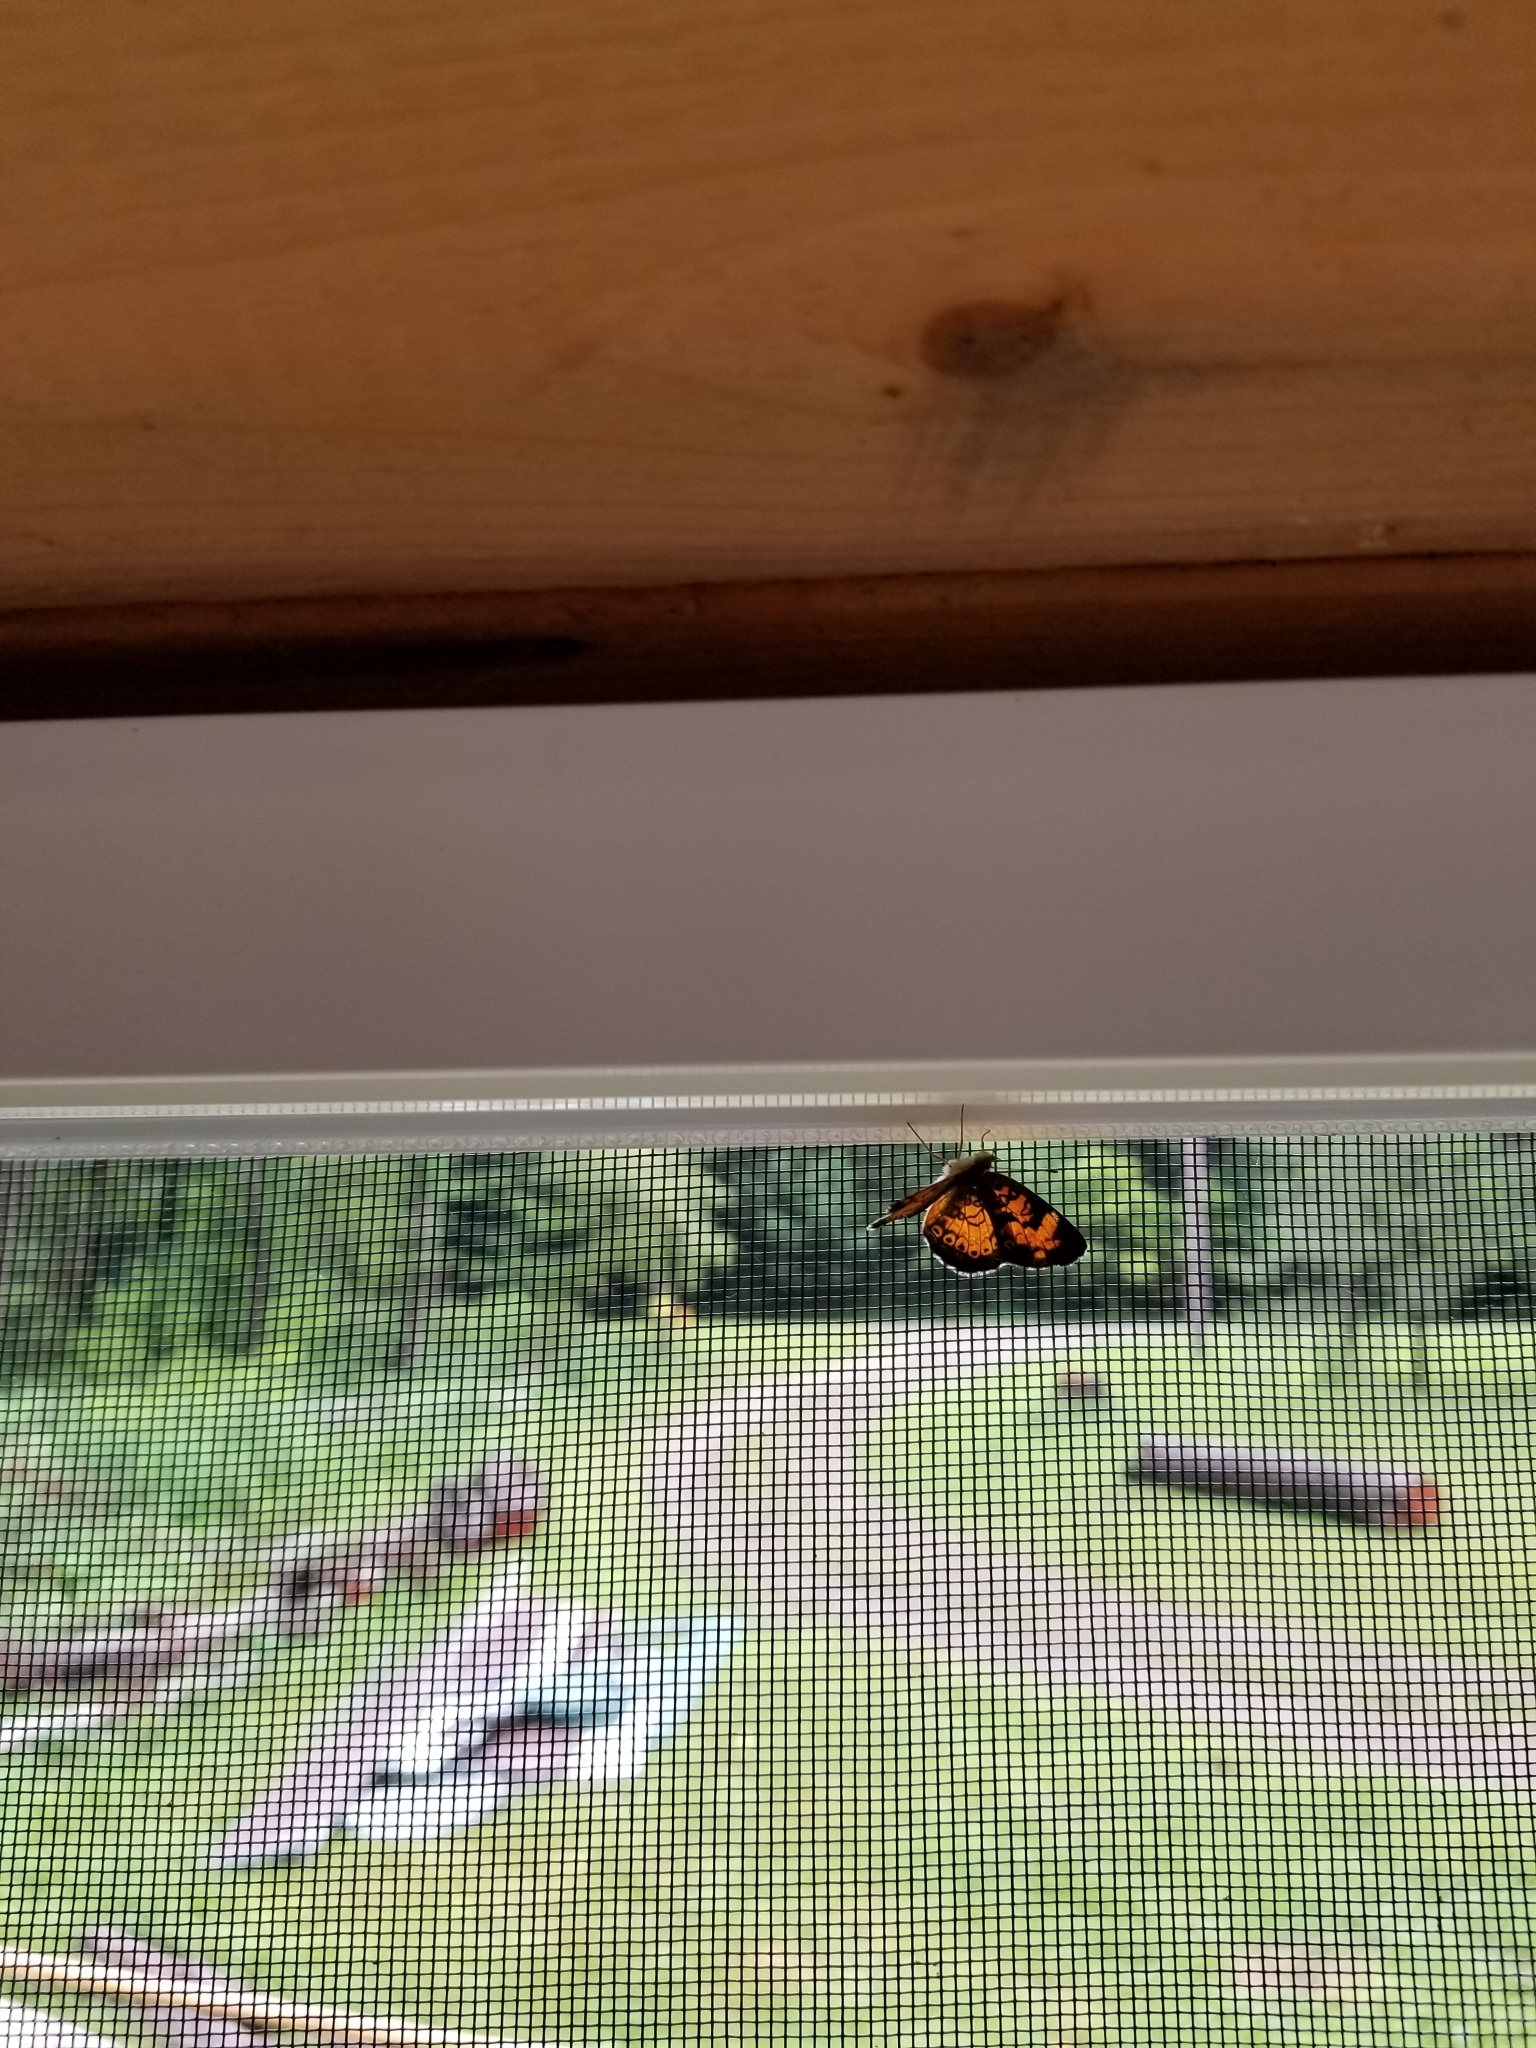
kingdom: Animalia
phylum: Arthropoda
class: Insecta
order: Lepidoptera
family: Nymphalidae
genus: Phyciodes
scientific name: Phyciodes tharos
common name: Pearl crescent
